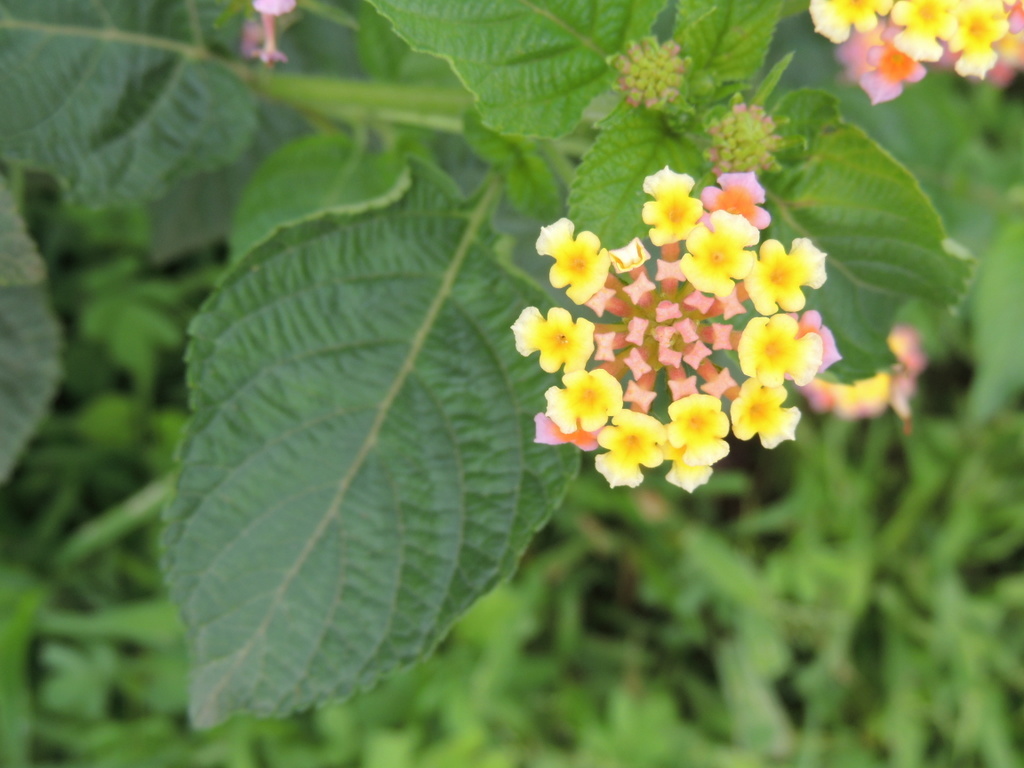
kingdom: Plantae
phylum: Tracheophyta
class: Magnoliopsida
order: Lamiales
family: Verbenaceae
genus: Lantana
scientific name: Lantana camara
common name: Lantana
